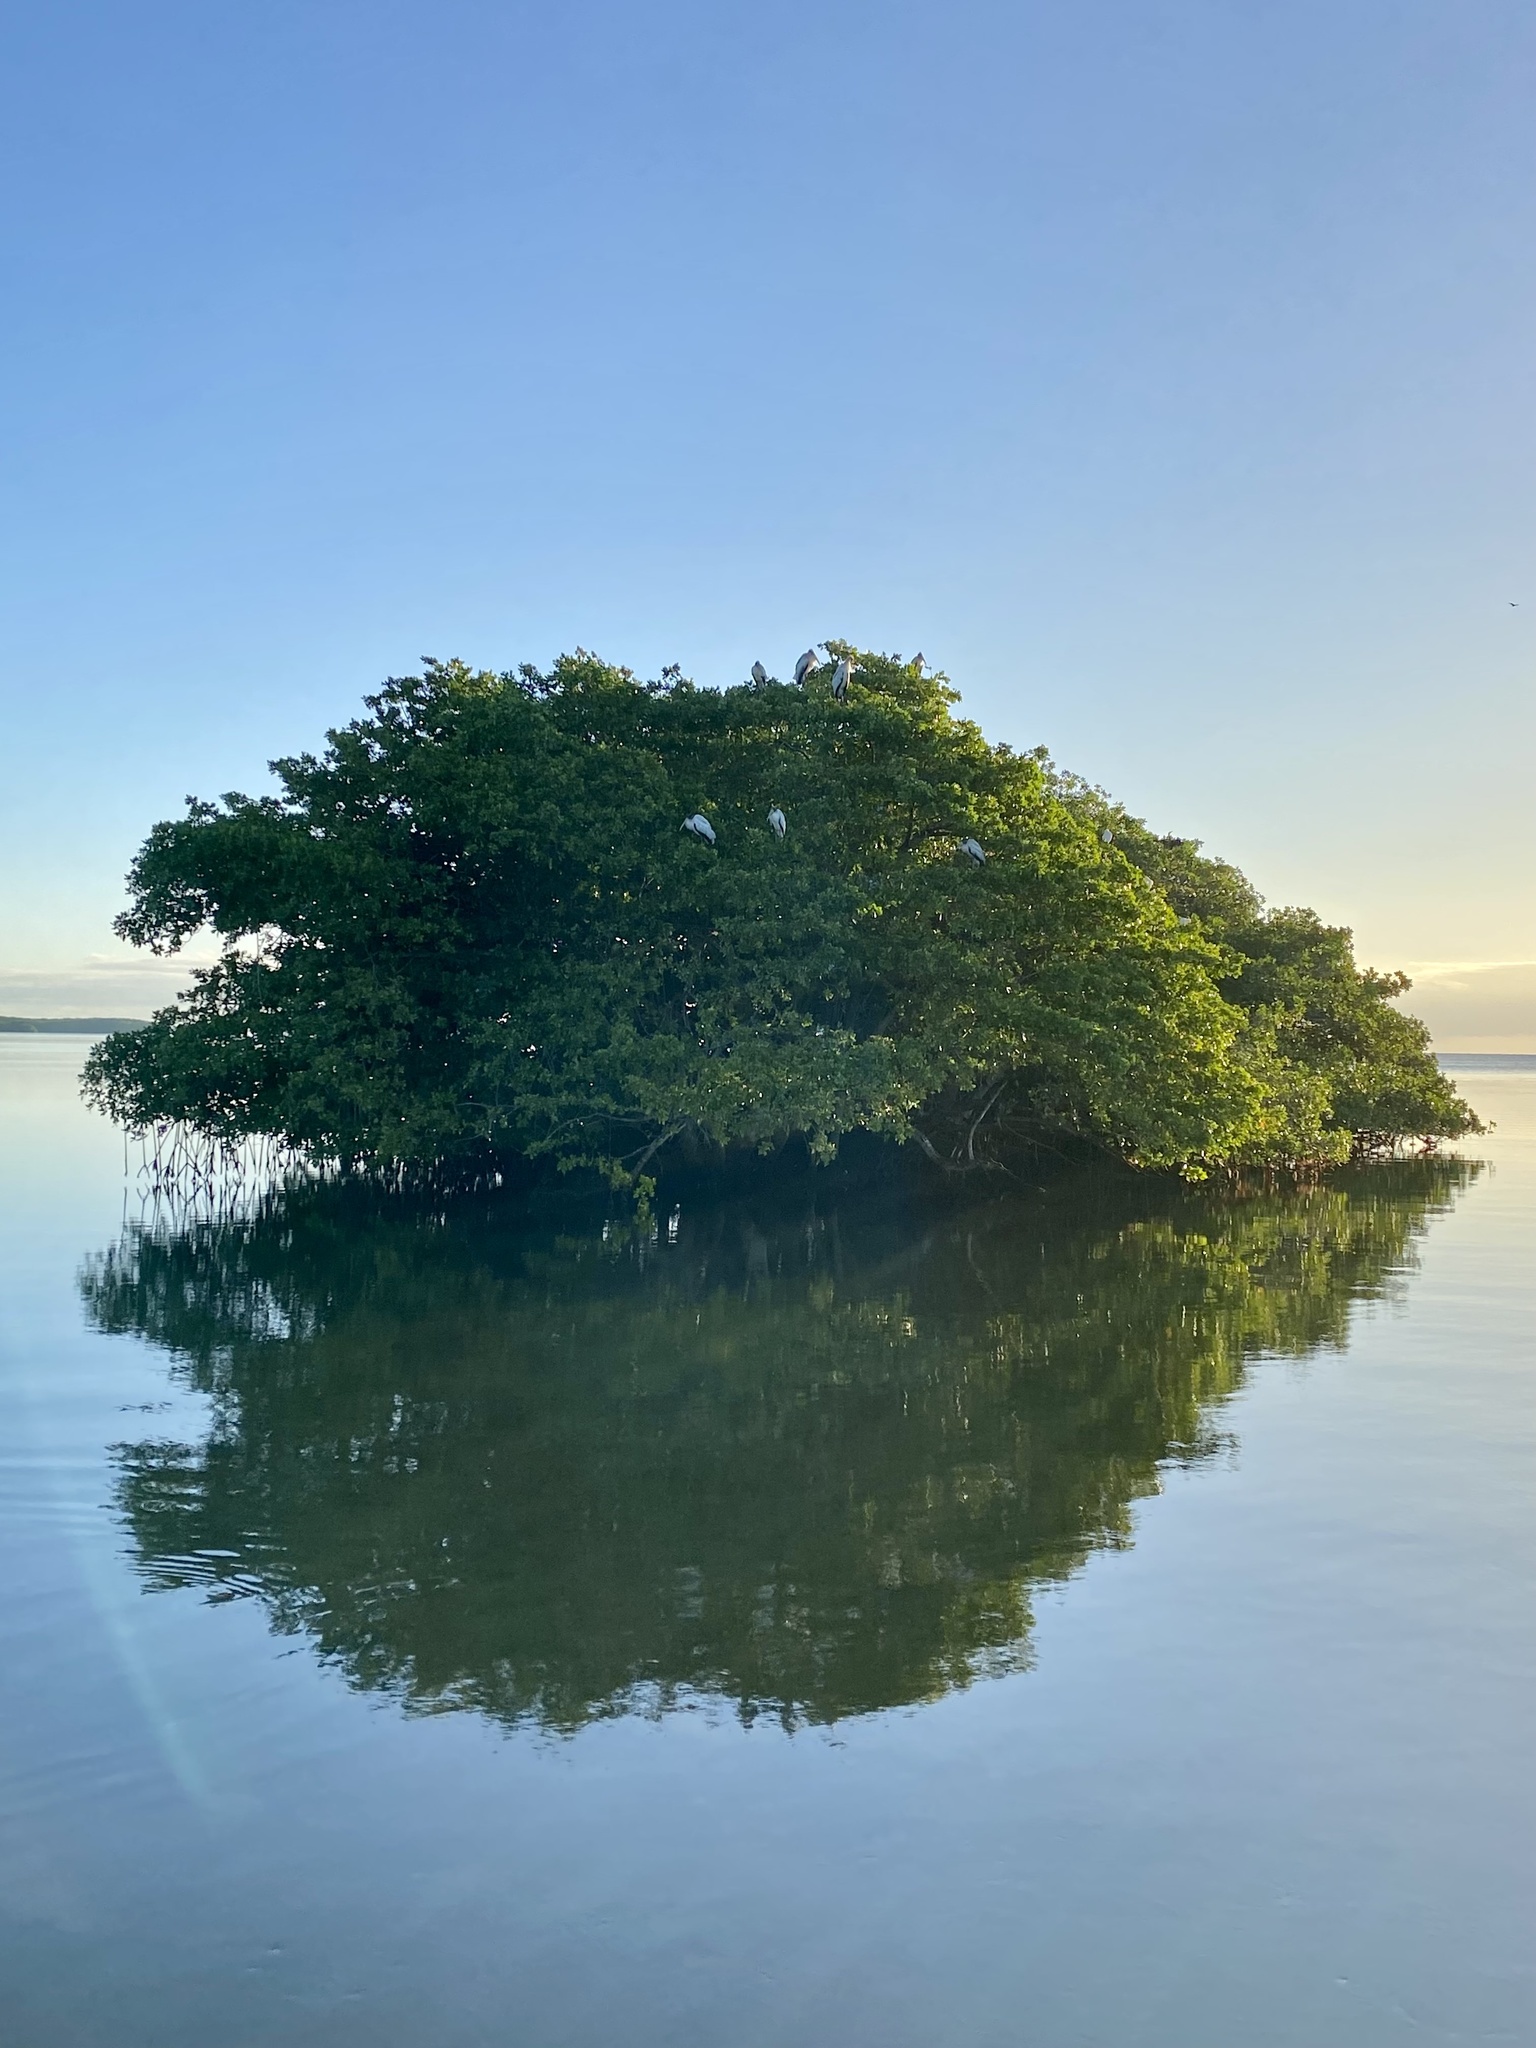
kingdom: Animalia
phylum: Chordata
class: Aves
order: Ciconiiformes
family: Ciconiidae
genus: Mycteria
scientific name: Mycteria americana
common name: Wood stork
